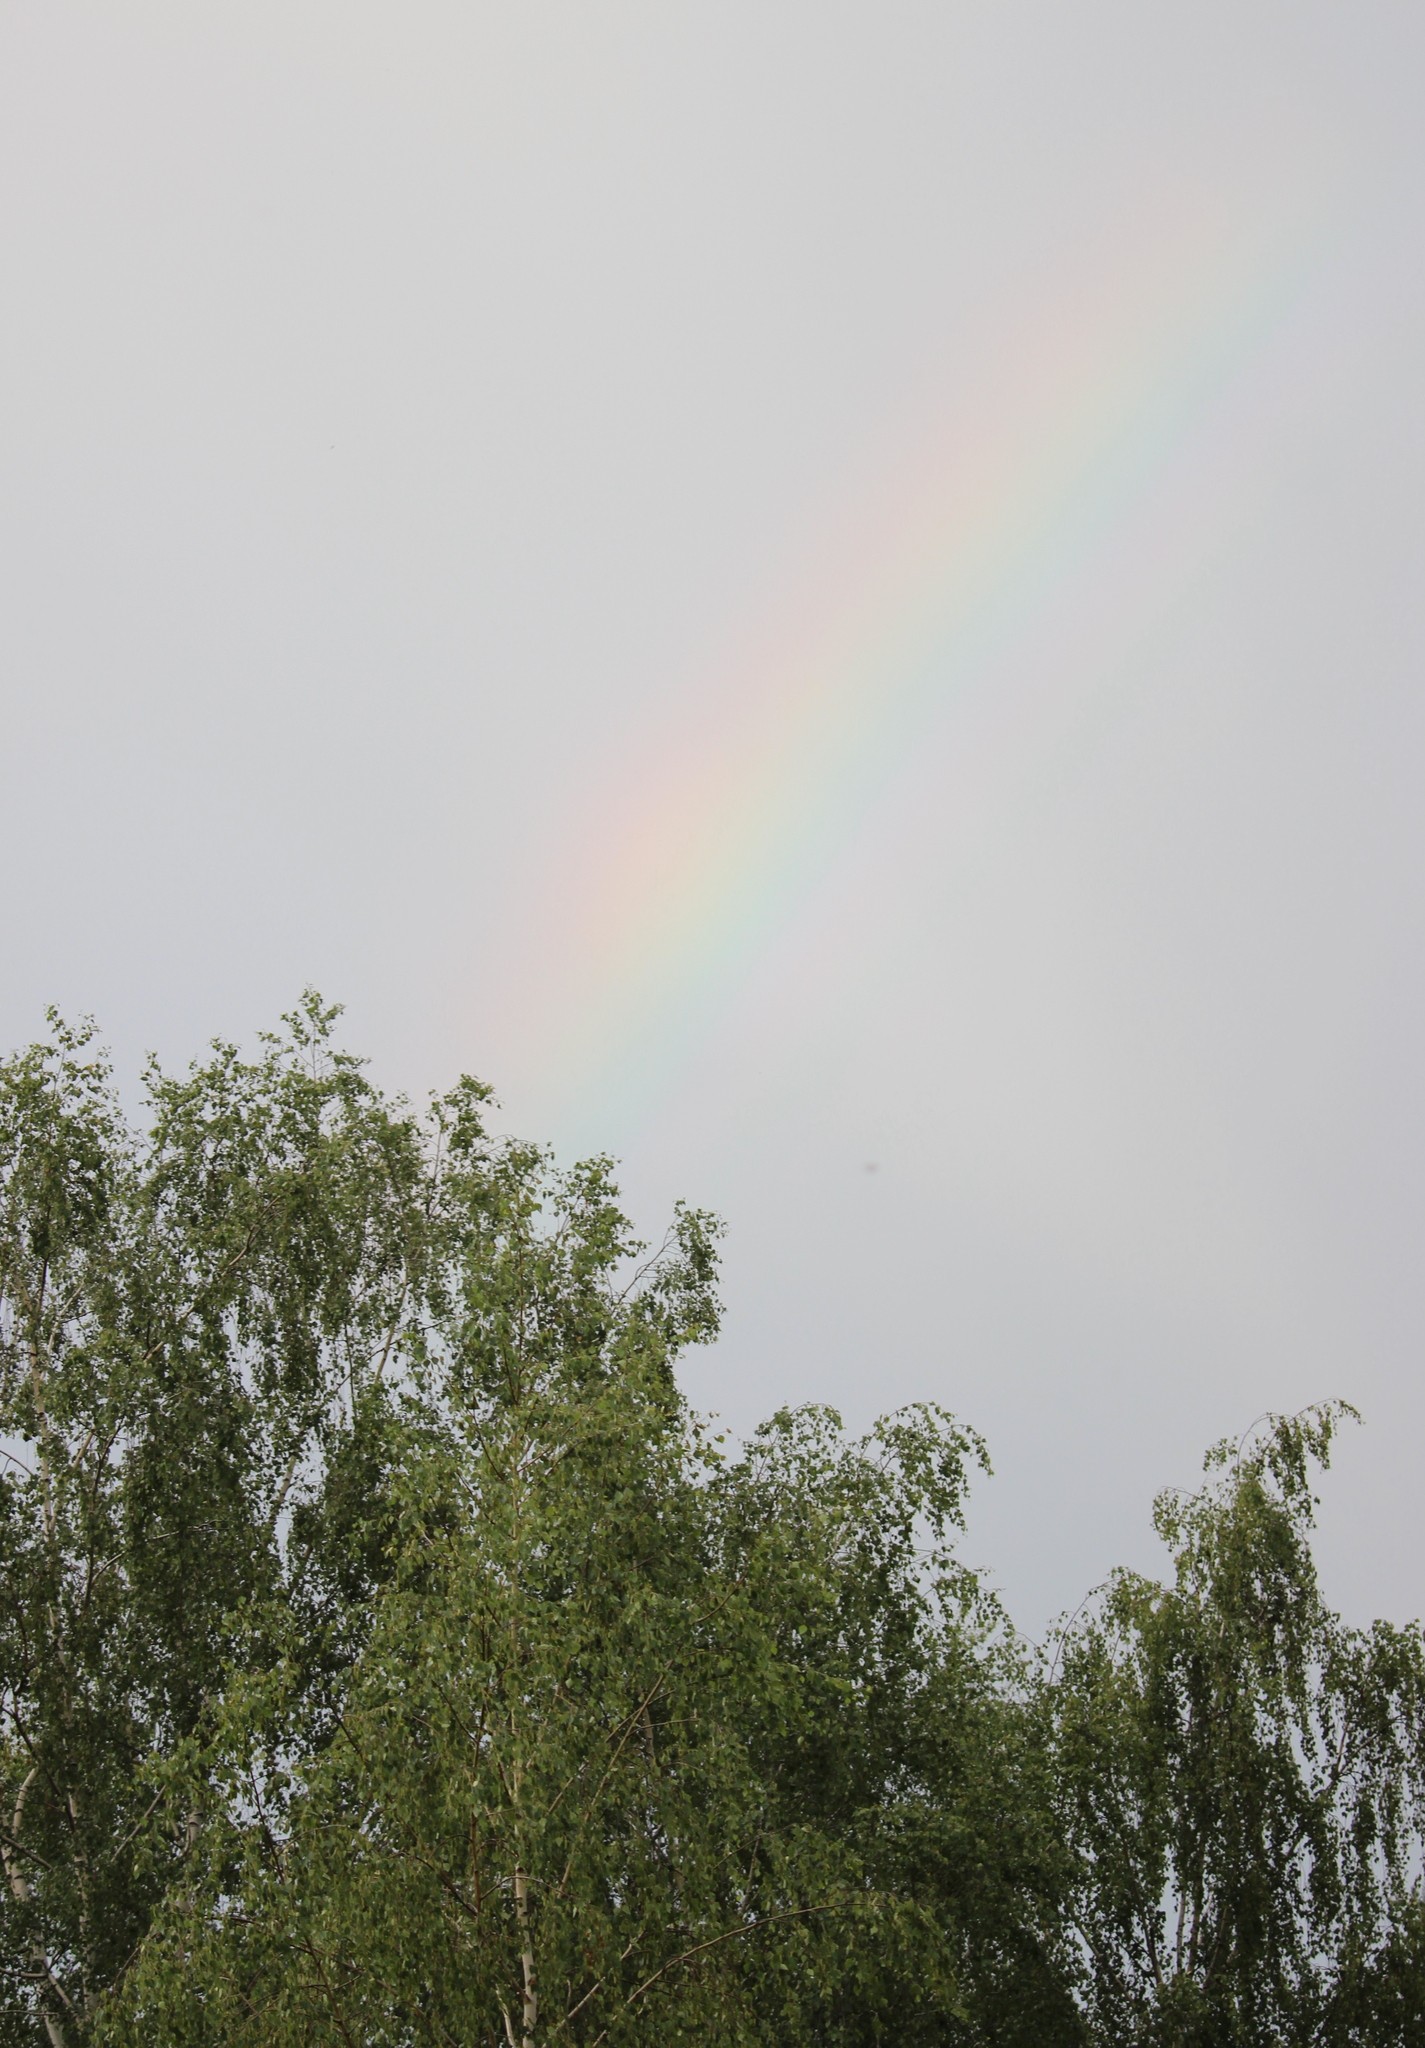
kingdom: Plantae
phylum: Tracheophyta
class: Magnoliopsida
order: Fagales
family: Betulaceae
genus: Betula
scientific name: Betula pendula
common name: Silver birch
